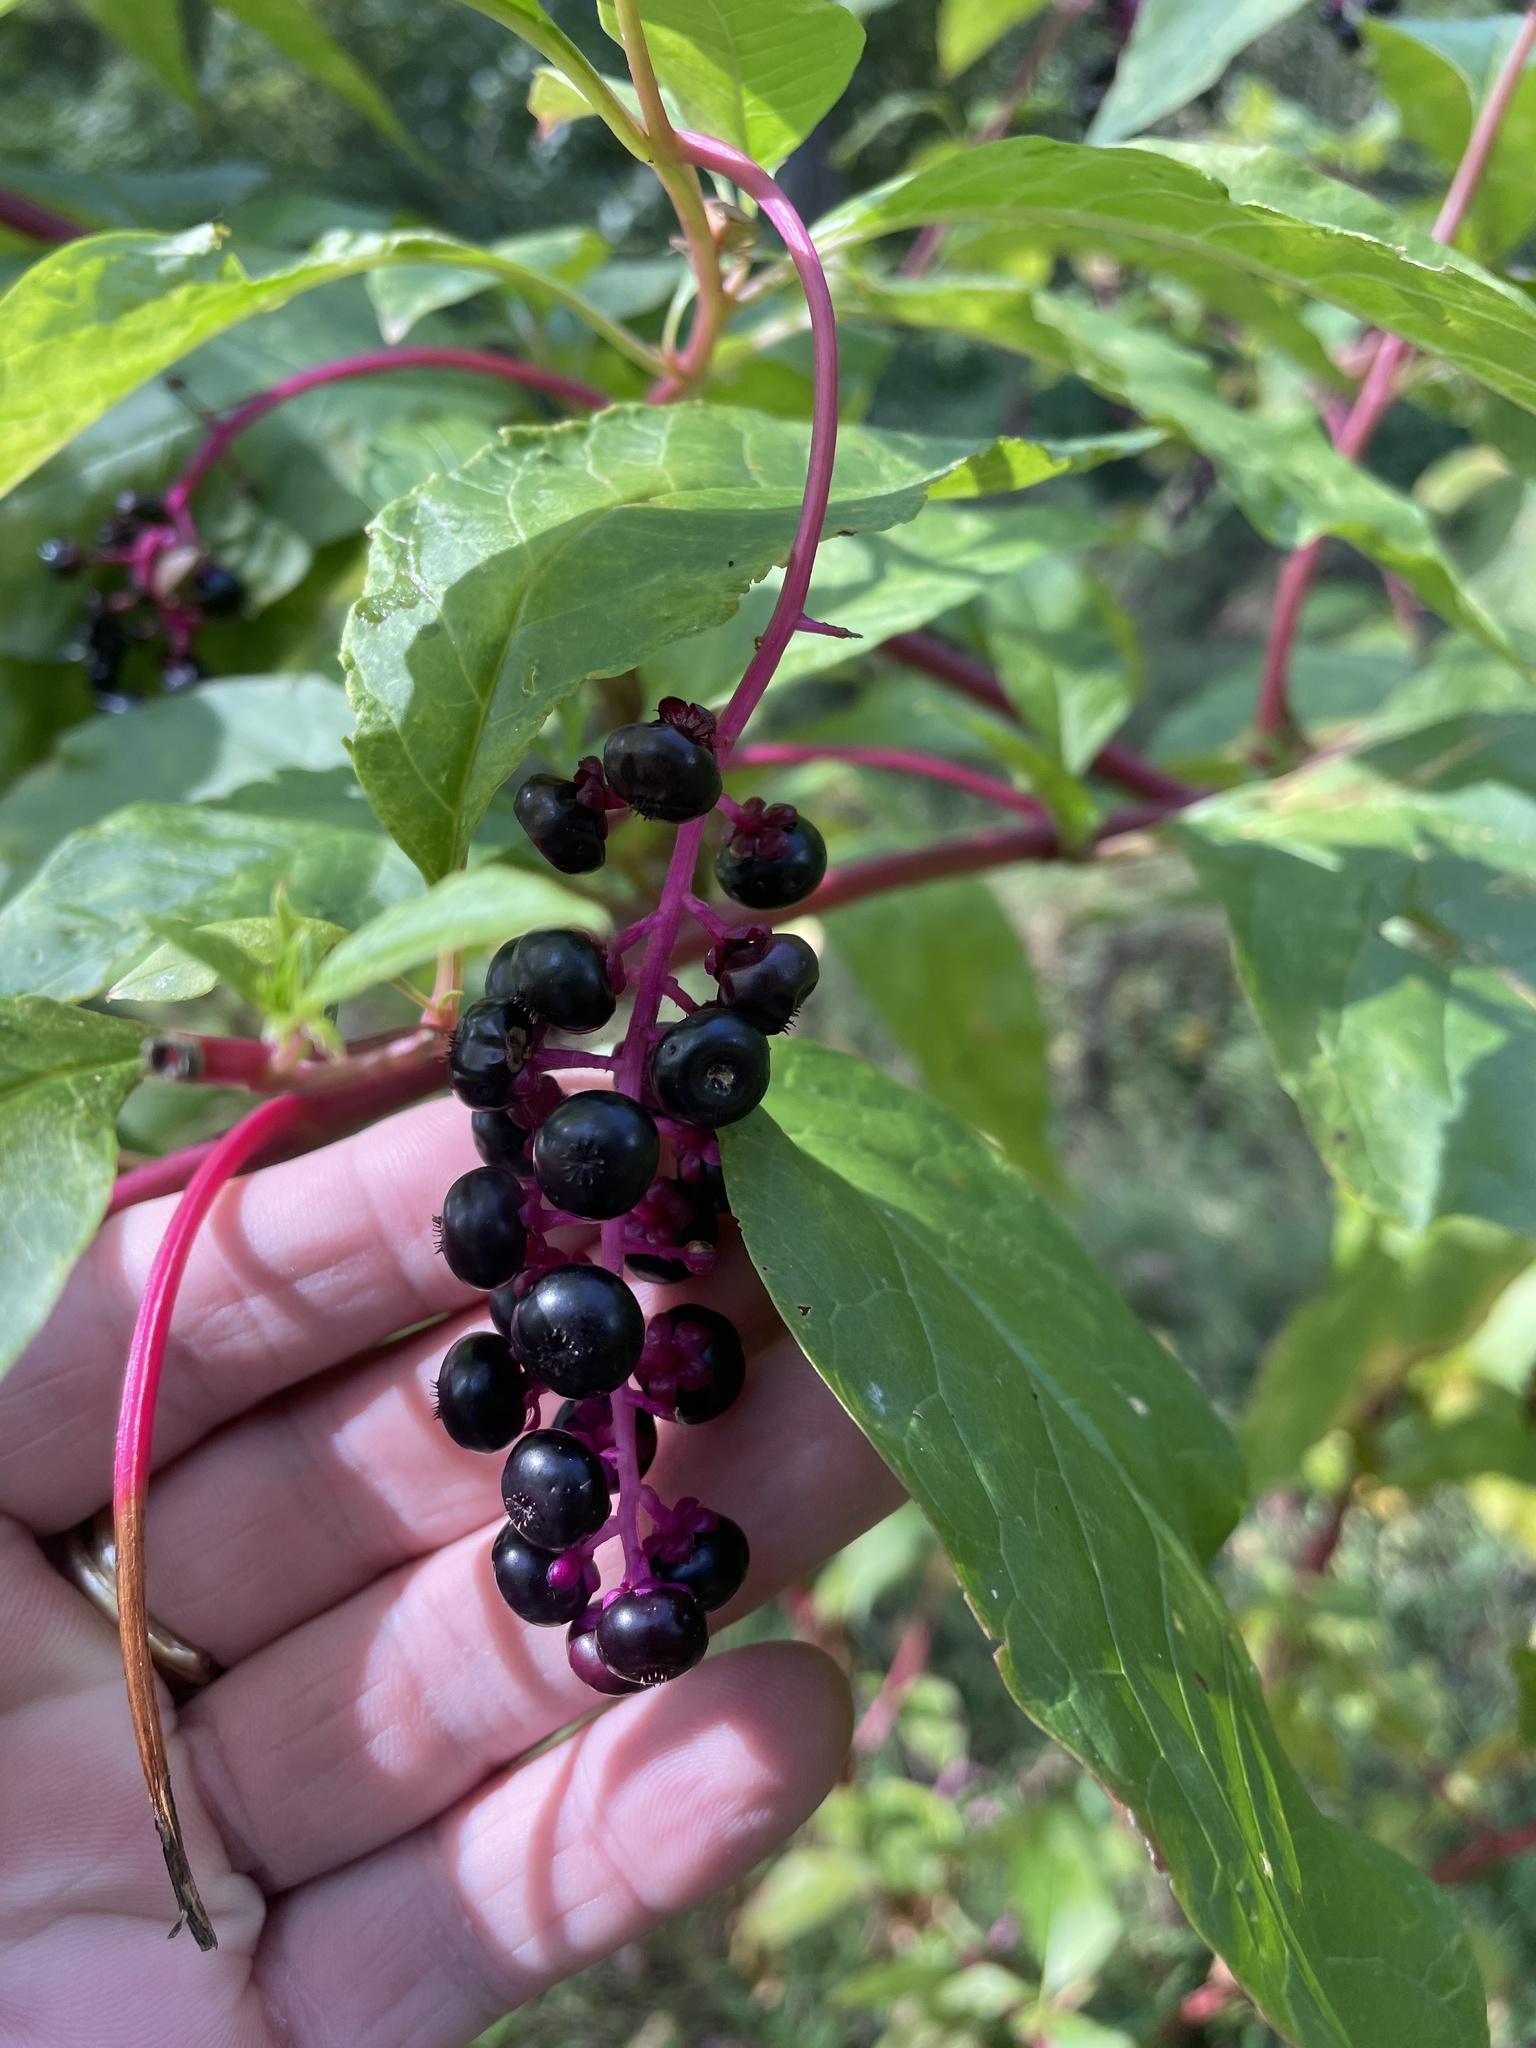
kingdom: Plantae
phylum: Tracheophyta
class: Magnoliopsida
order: Caryophyllales
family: Phytolaccaceae
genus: Phytolacca
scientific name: Phytolacca americana
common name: American pokeweed
